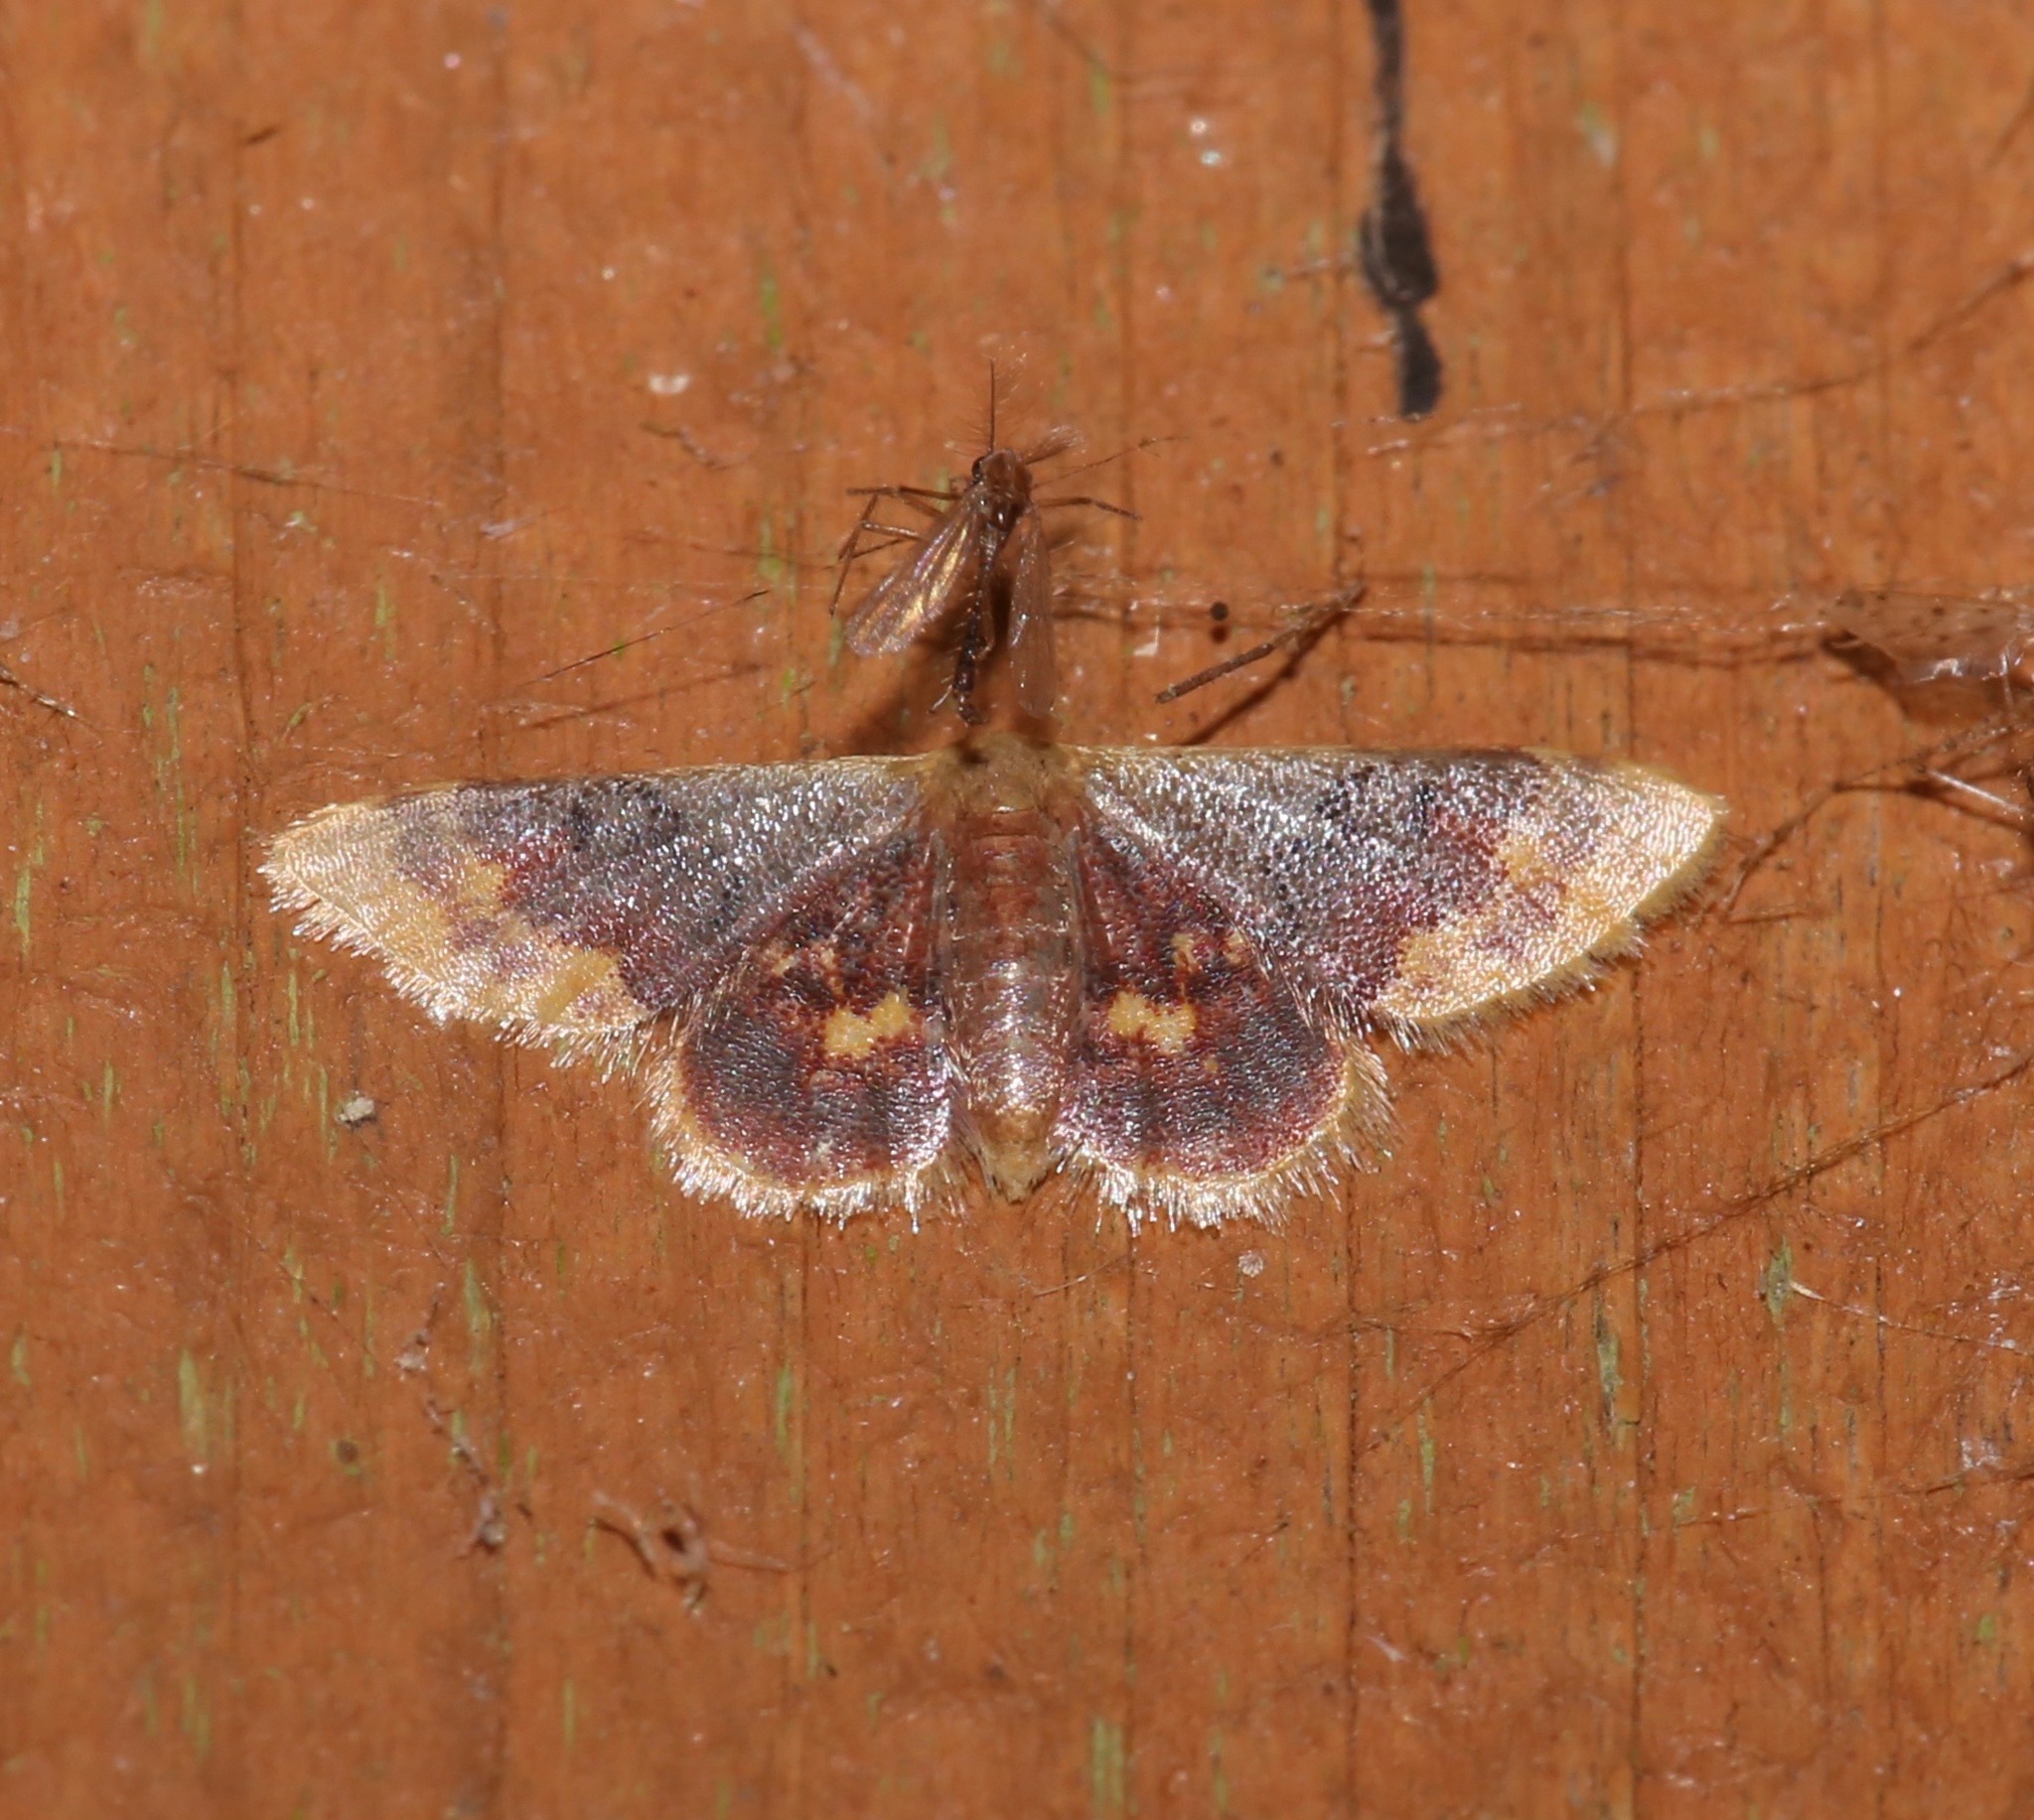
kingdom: Animalia
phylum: Arthropoda
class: Insecta
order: Lepidoptera
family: Geometridae
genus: Idaea
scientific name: Idaea scintillularia
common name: Diminutive wave
